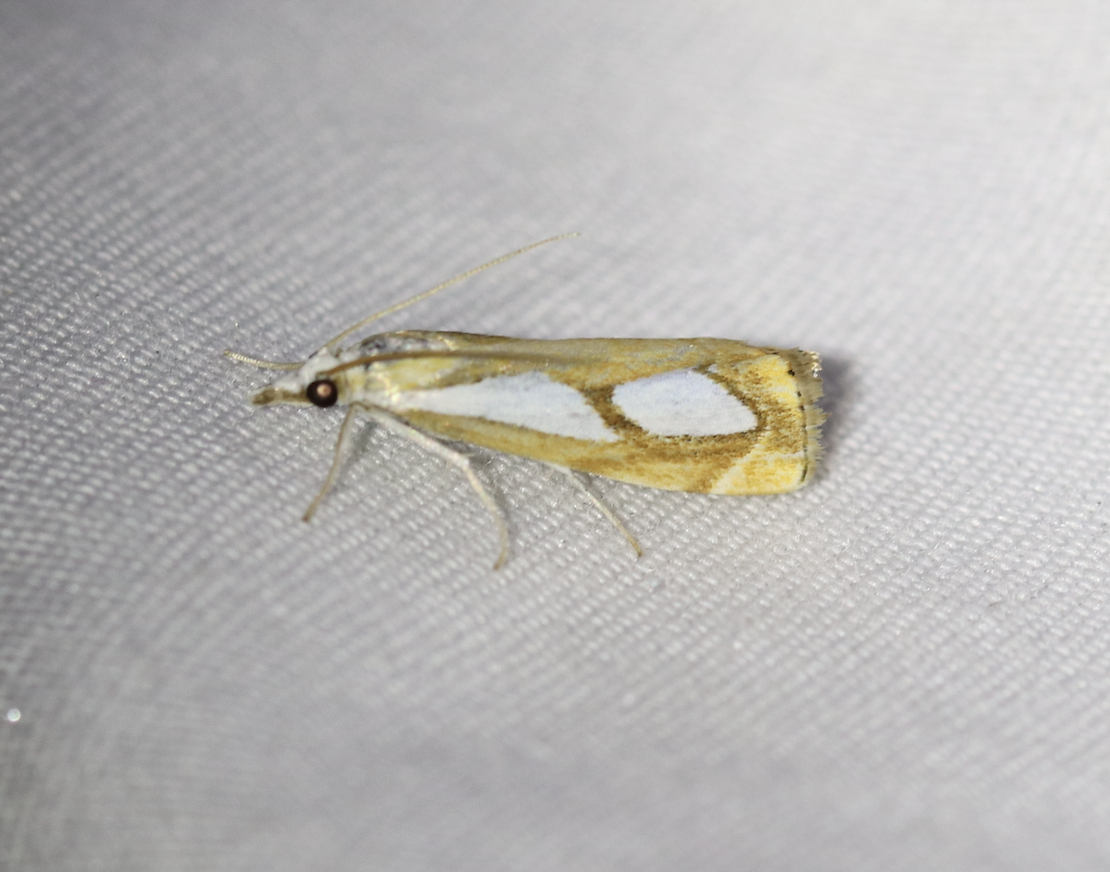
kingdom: Animalia
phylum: Arthropoda
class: Insecta
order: Lepidoptera
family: Crambidae
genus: Catoptria
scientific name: Catoptria pinella
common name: Pearl grass-veneer
